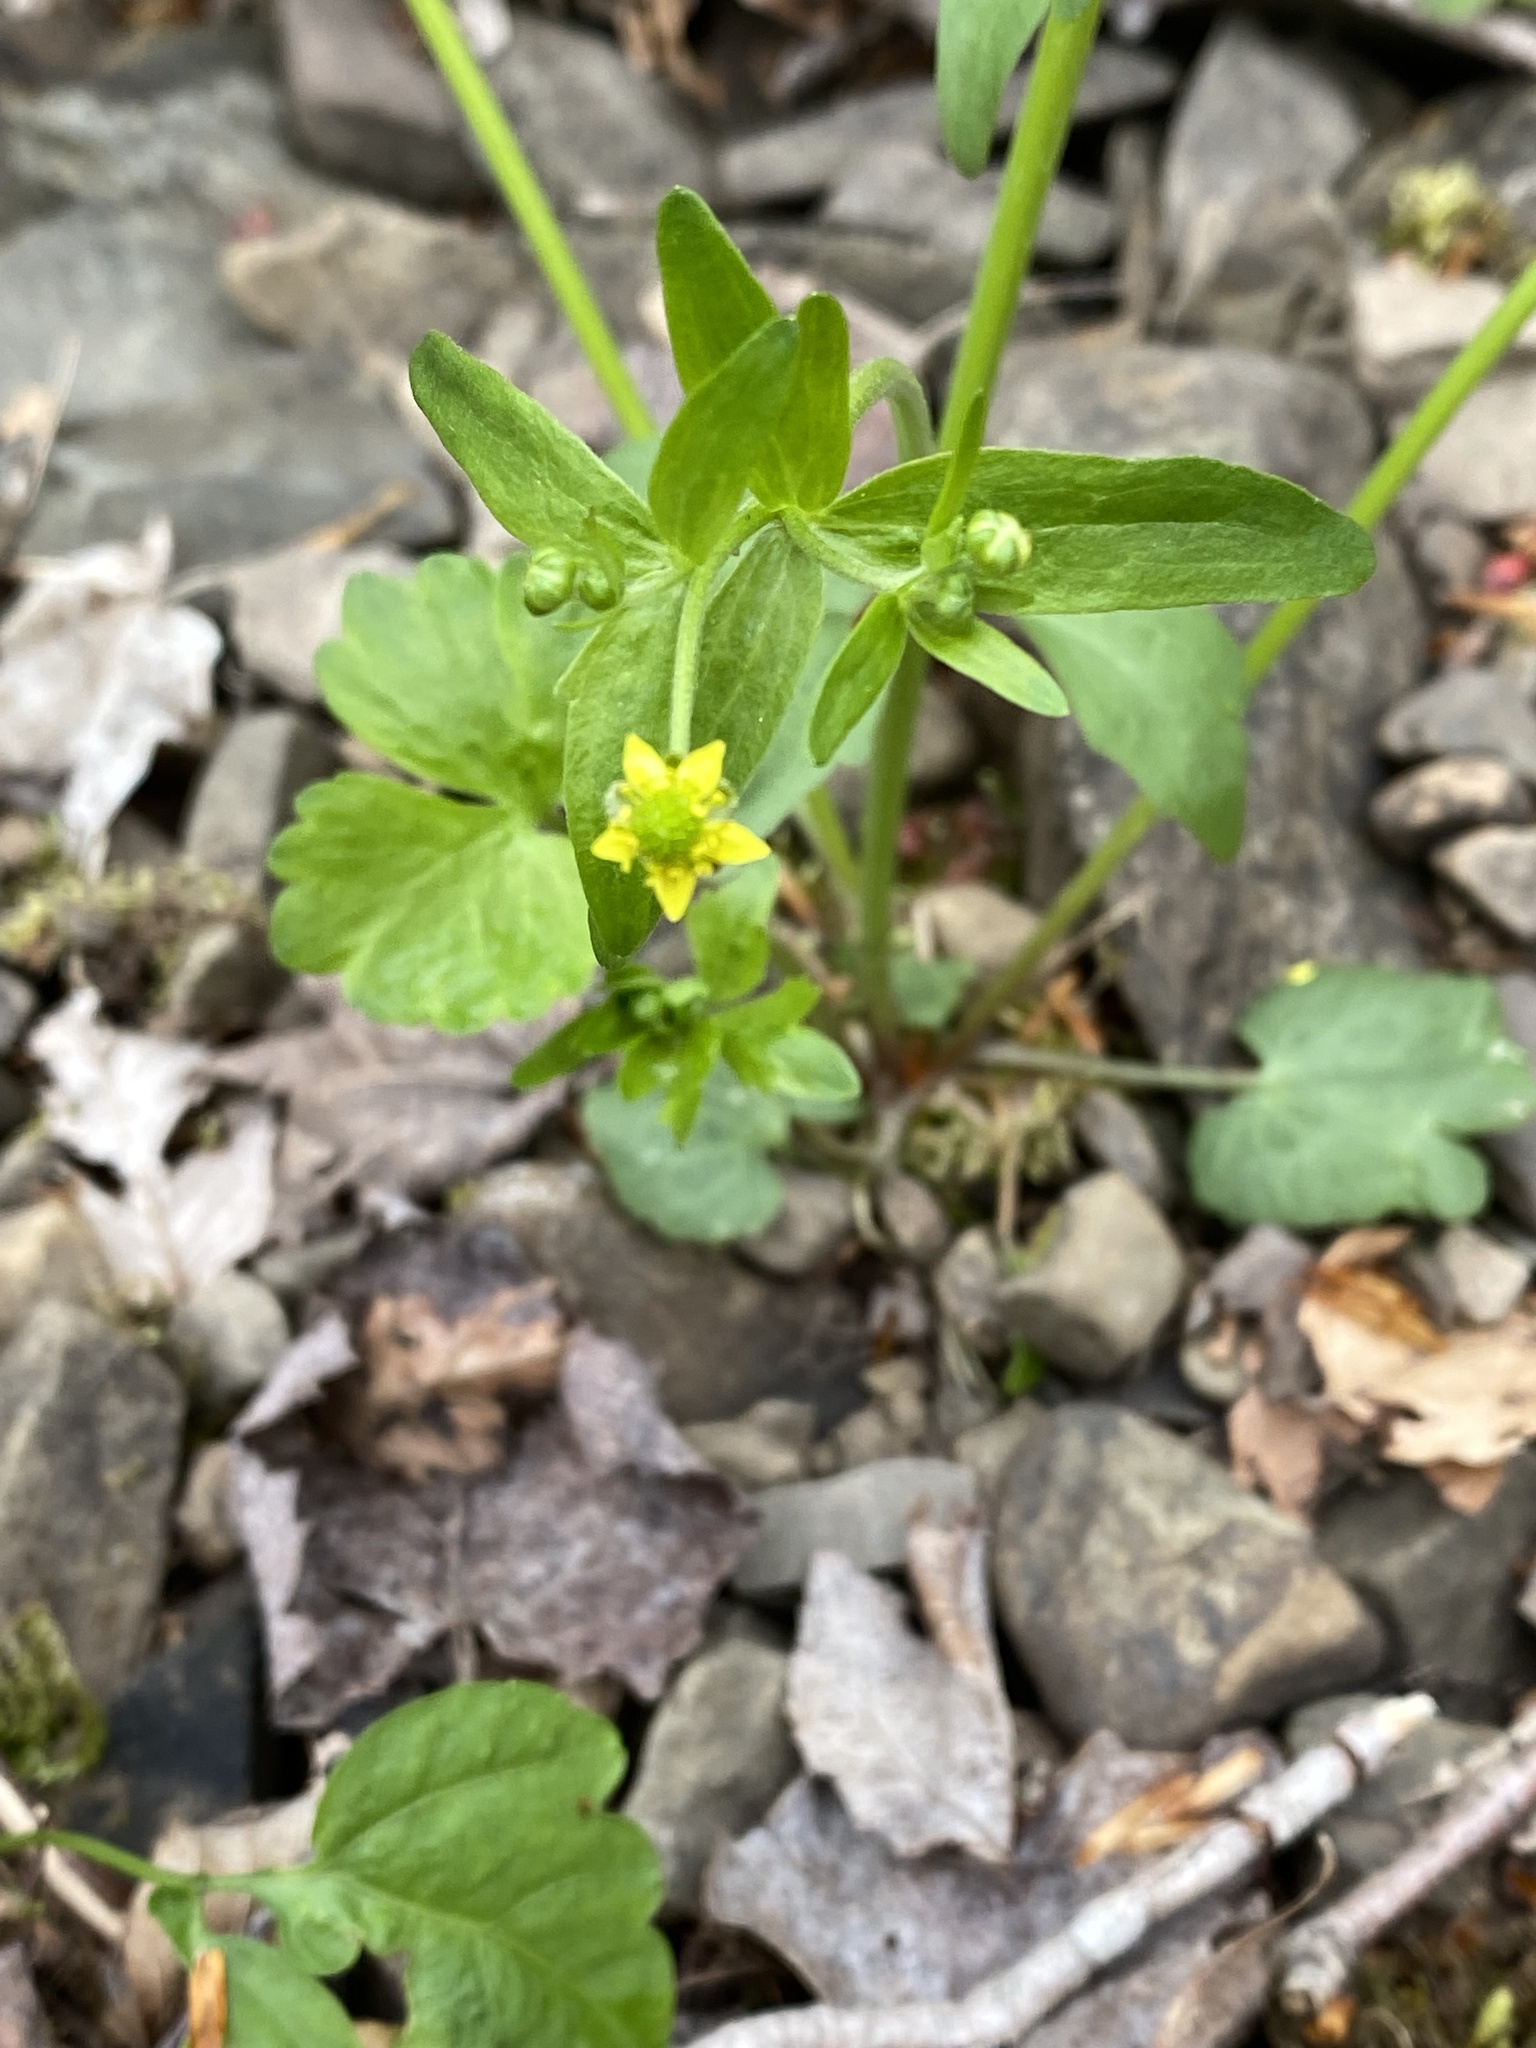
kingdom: Plantae
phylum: Tracheophyta
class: Magnoliopsida
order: Ranunculales
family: Ranunculaceae
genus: Ranunculus
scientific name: Ranunculus abortivus
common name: Early wood buttercup
